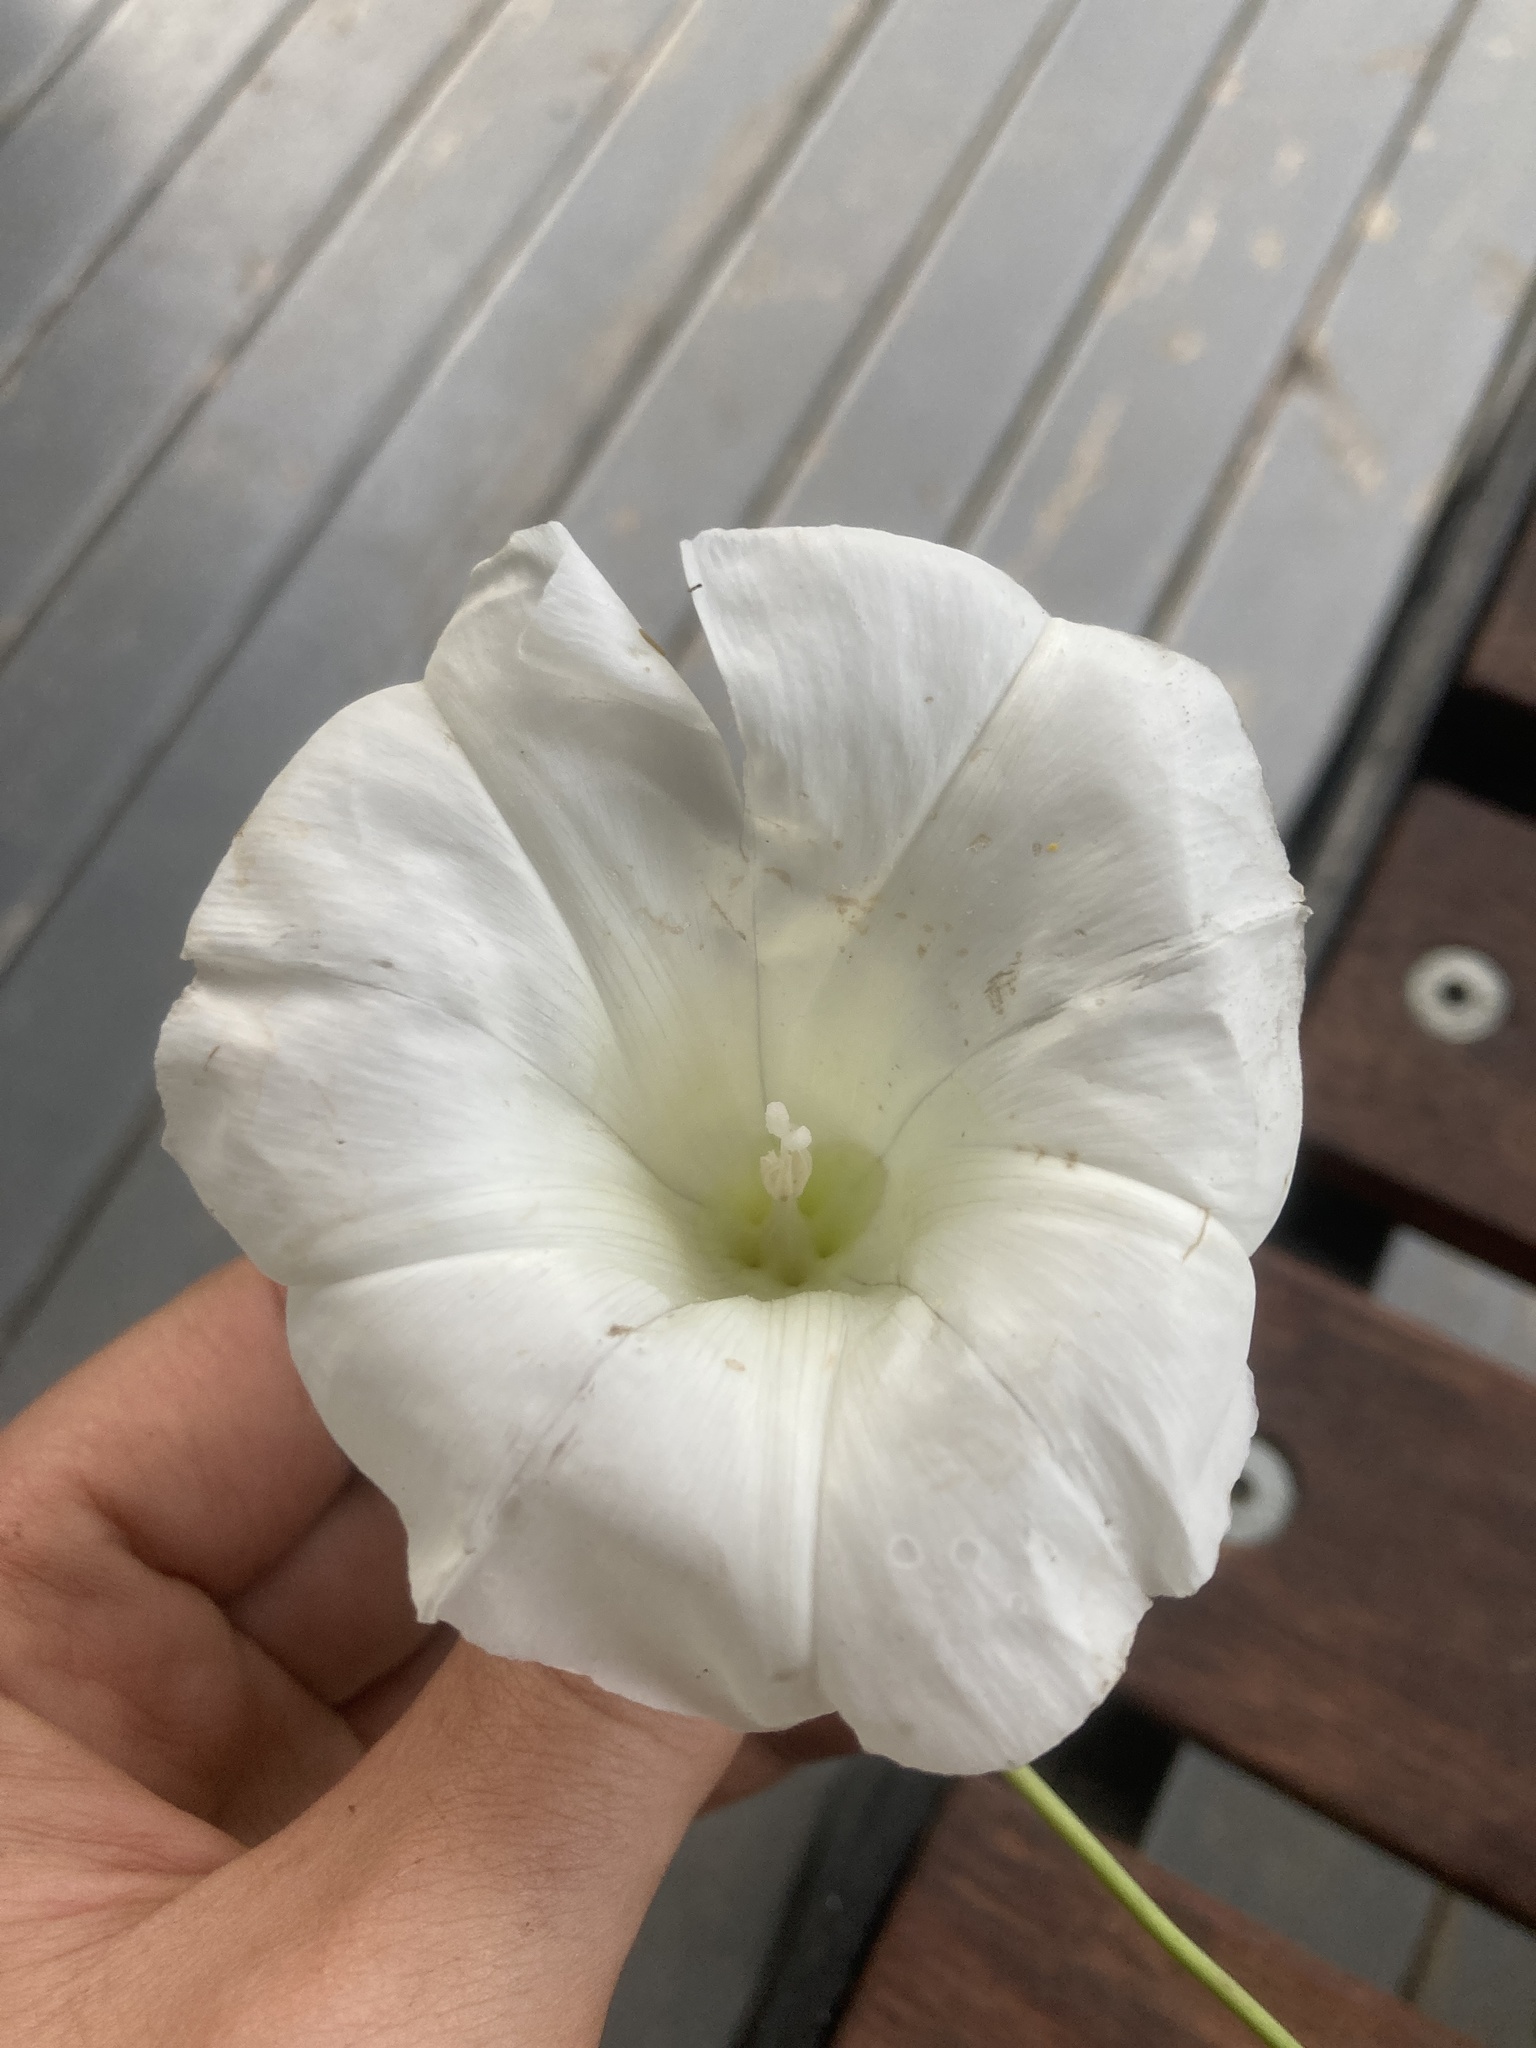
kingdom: Plantae
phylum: Tracheophyta
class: Magnoliopsida
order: Solanales
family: Convolvulaceae
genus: Calystegia
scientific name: Calystegia silvatica
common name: Large bindweed
